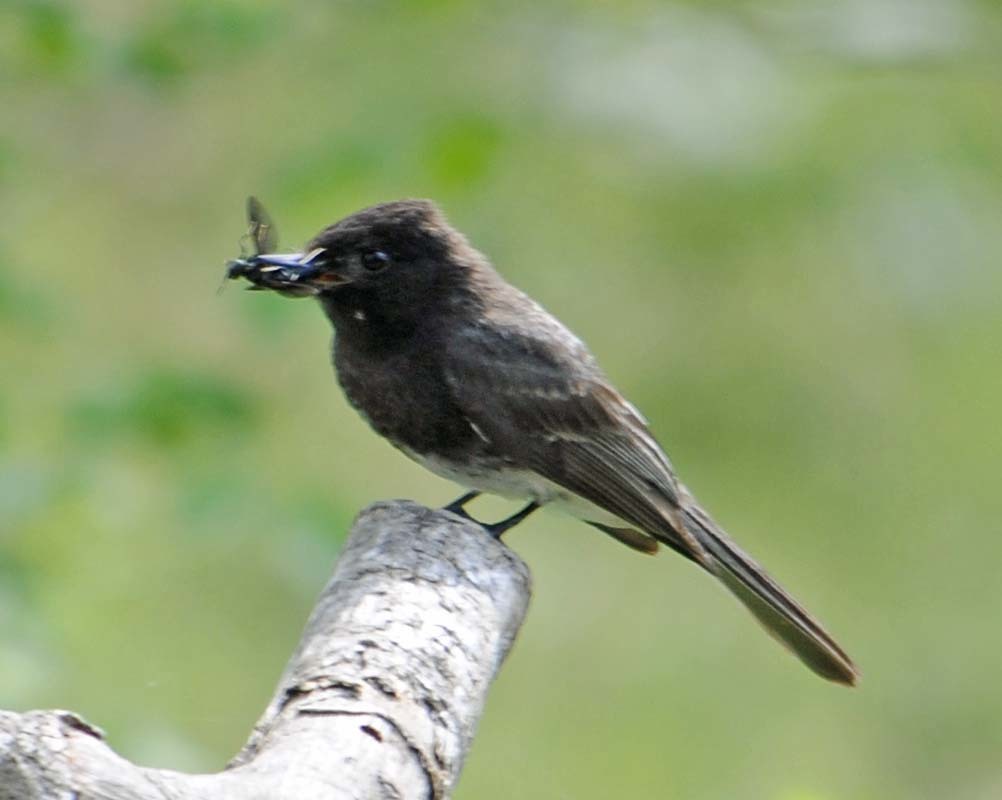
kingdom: Animalia
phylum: Chordata
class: Aves
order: Passeriformes
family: Tyrannidae
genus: Sayornis
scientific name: Sayornis nigricans
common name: Black phoebe
